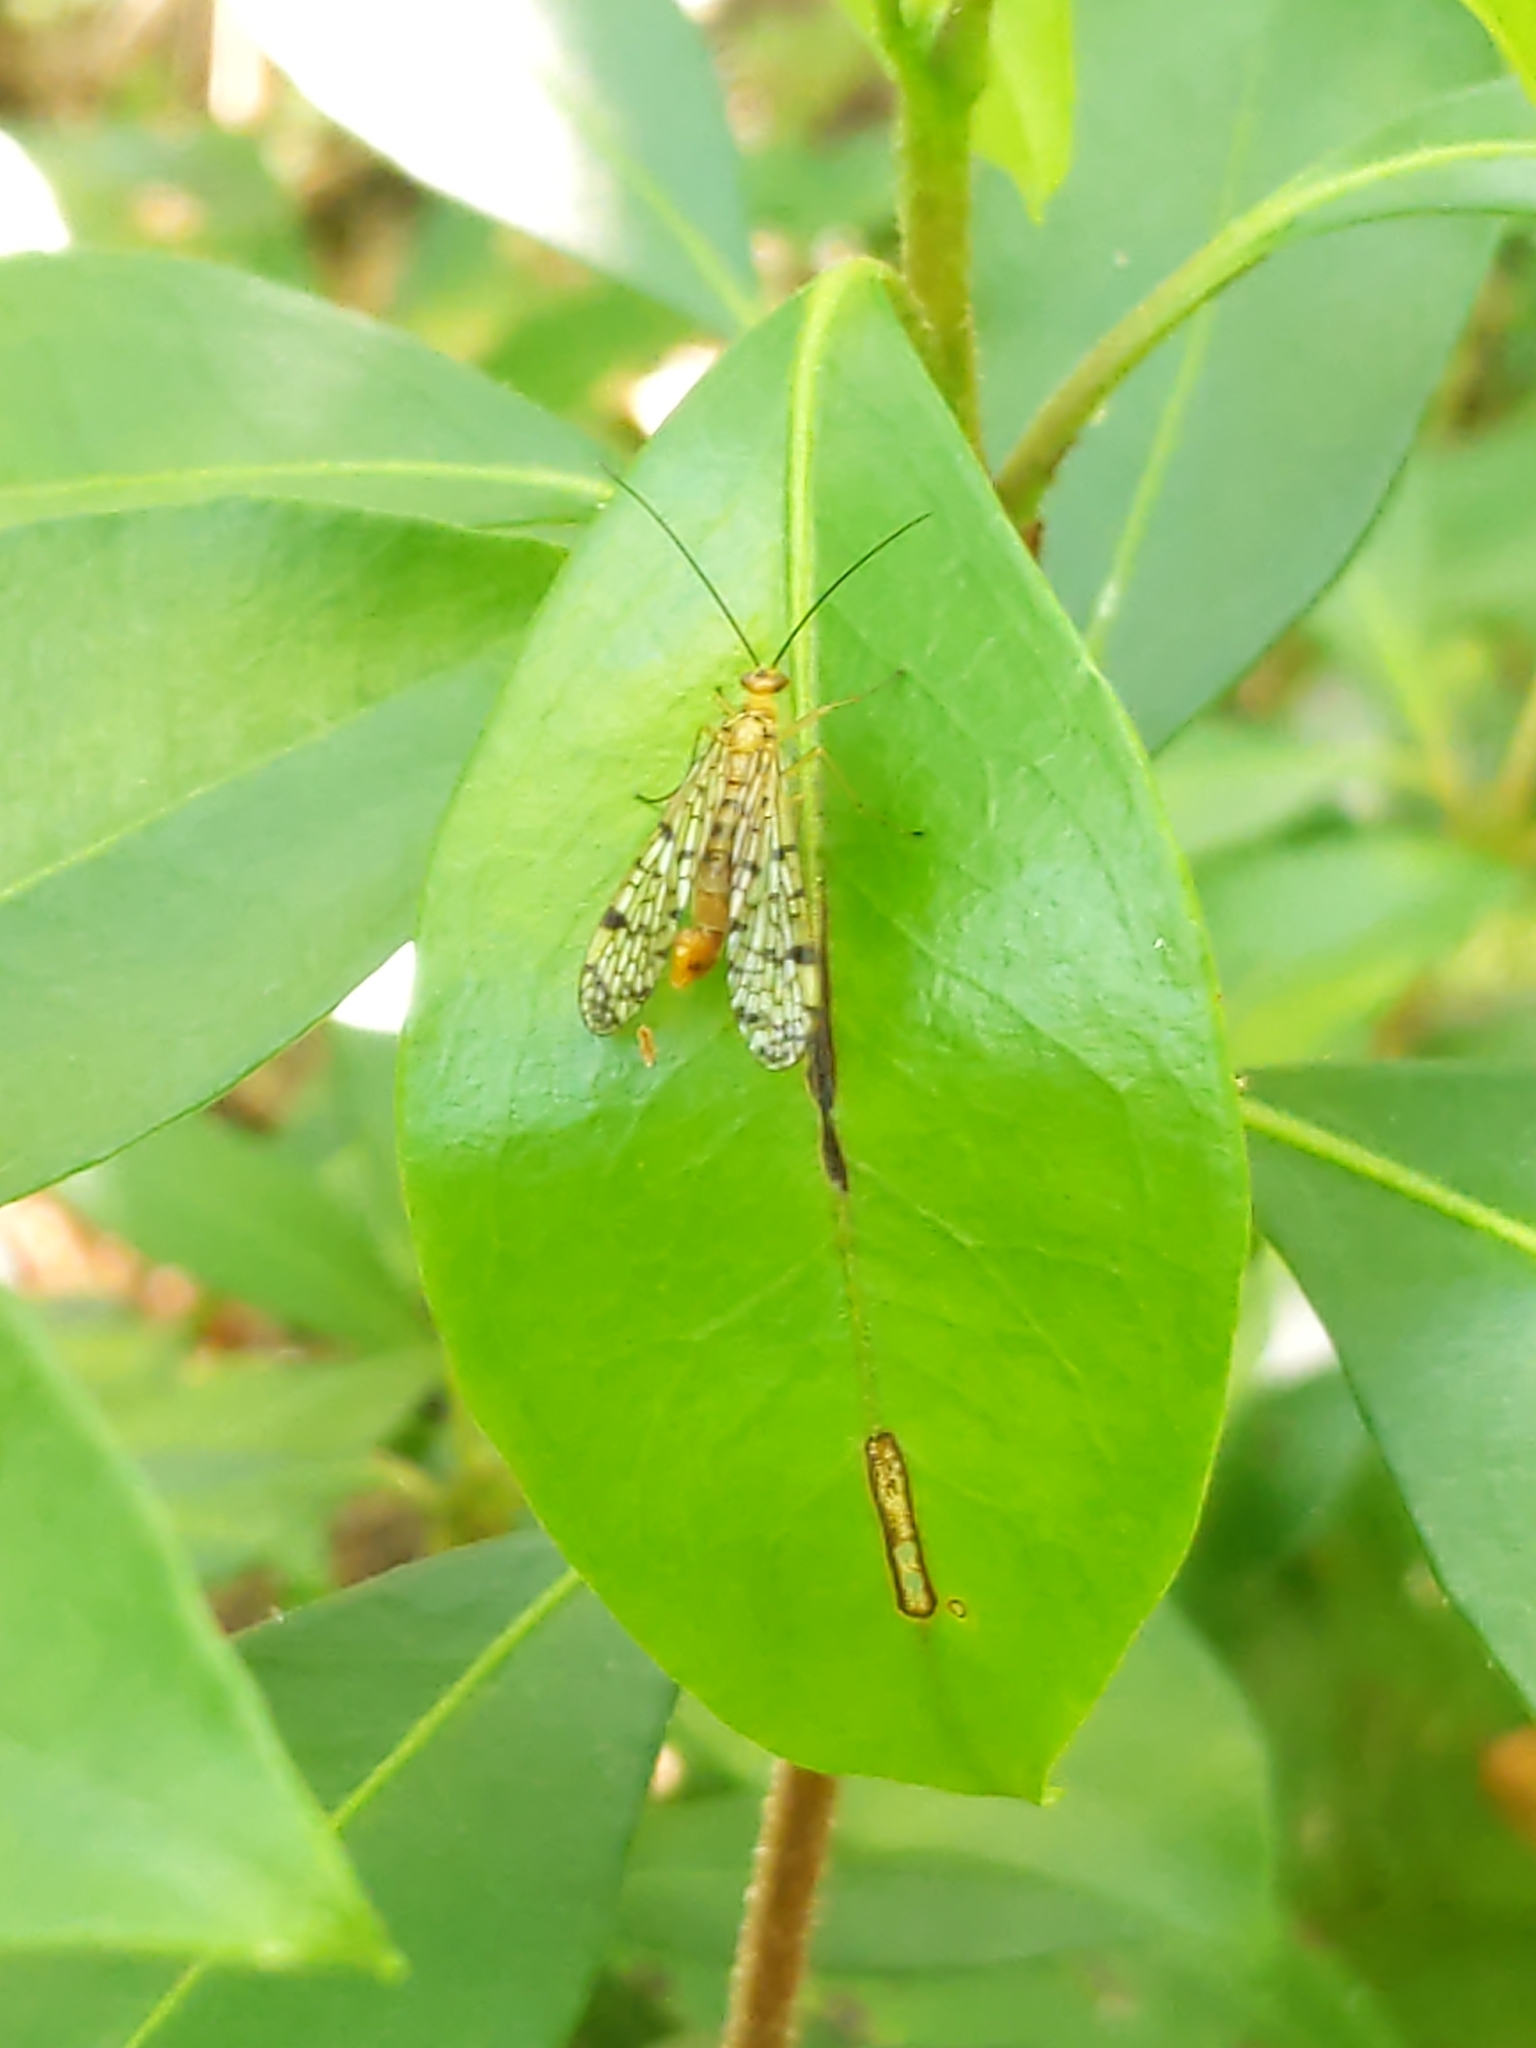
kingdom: Animalia
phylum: Arthropoda
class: Insecta
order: Mecoptera
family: Panorpidae
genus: Panorpa
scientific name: Panorpa
